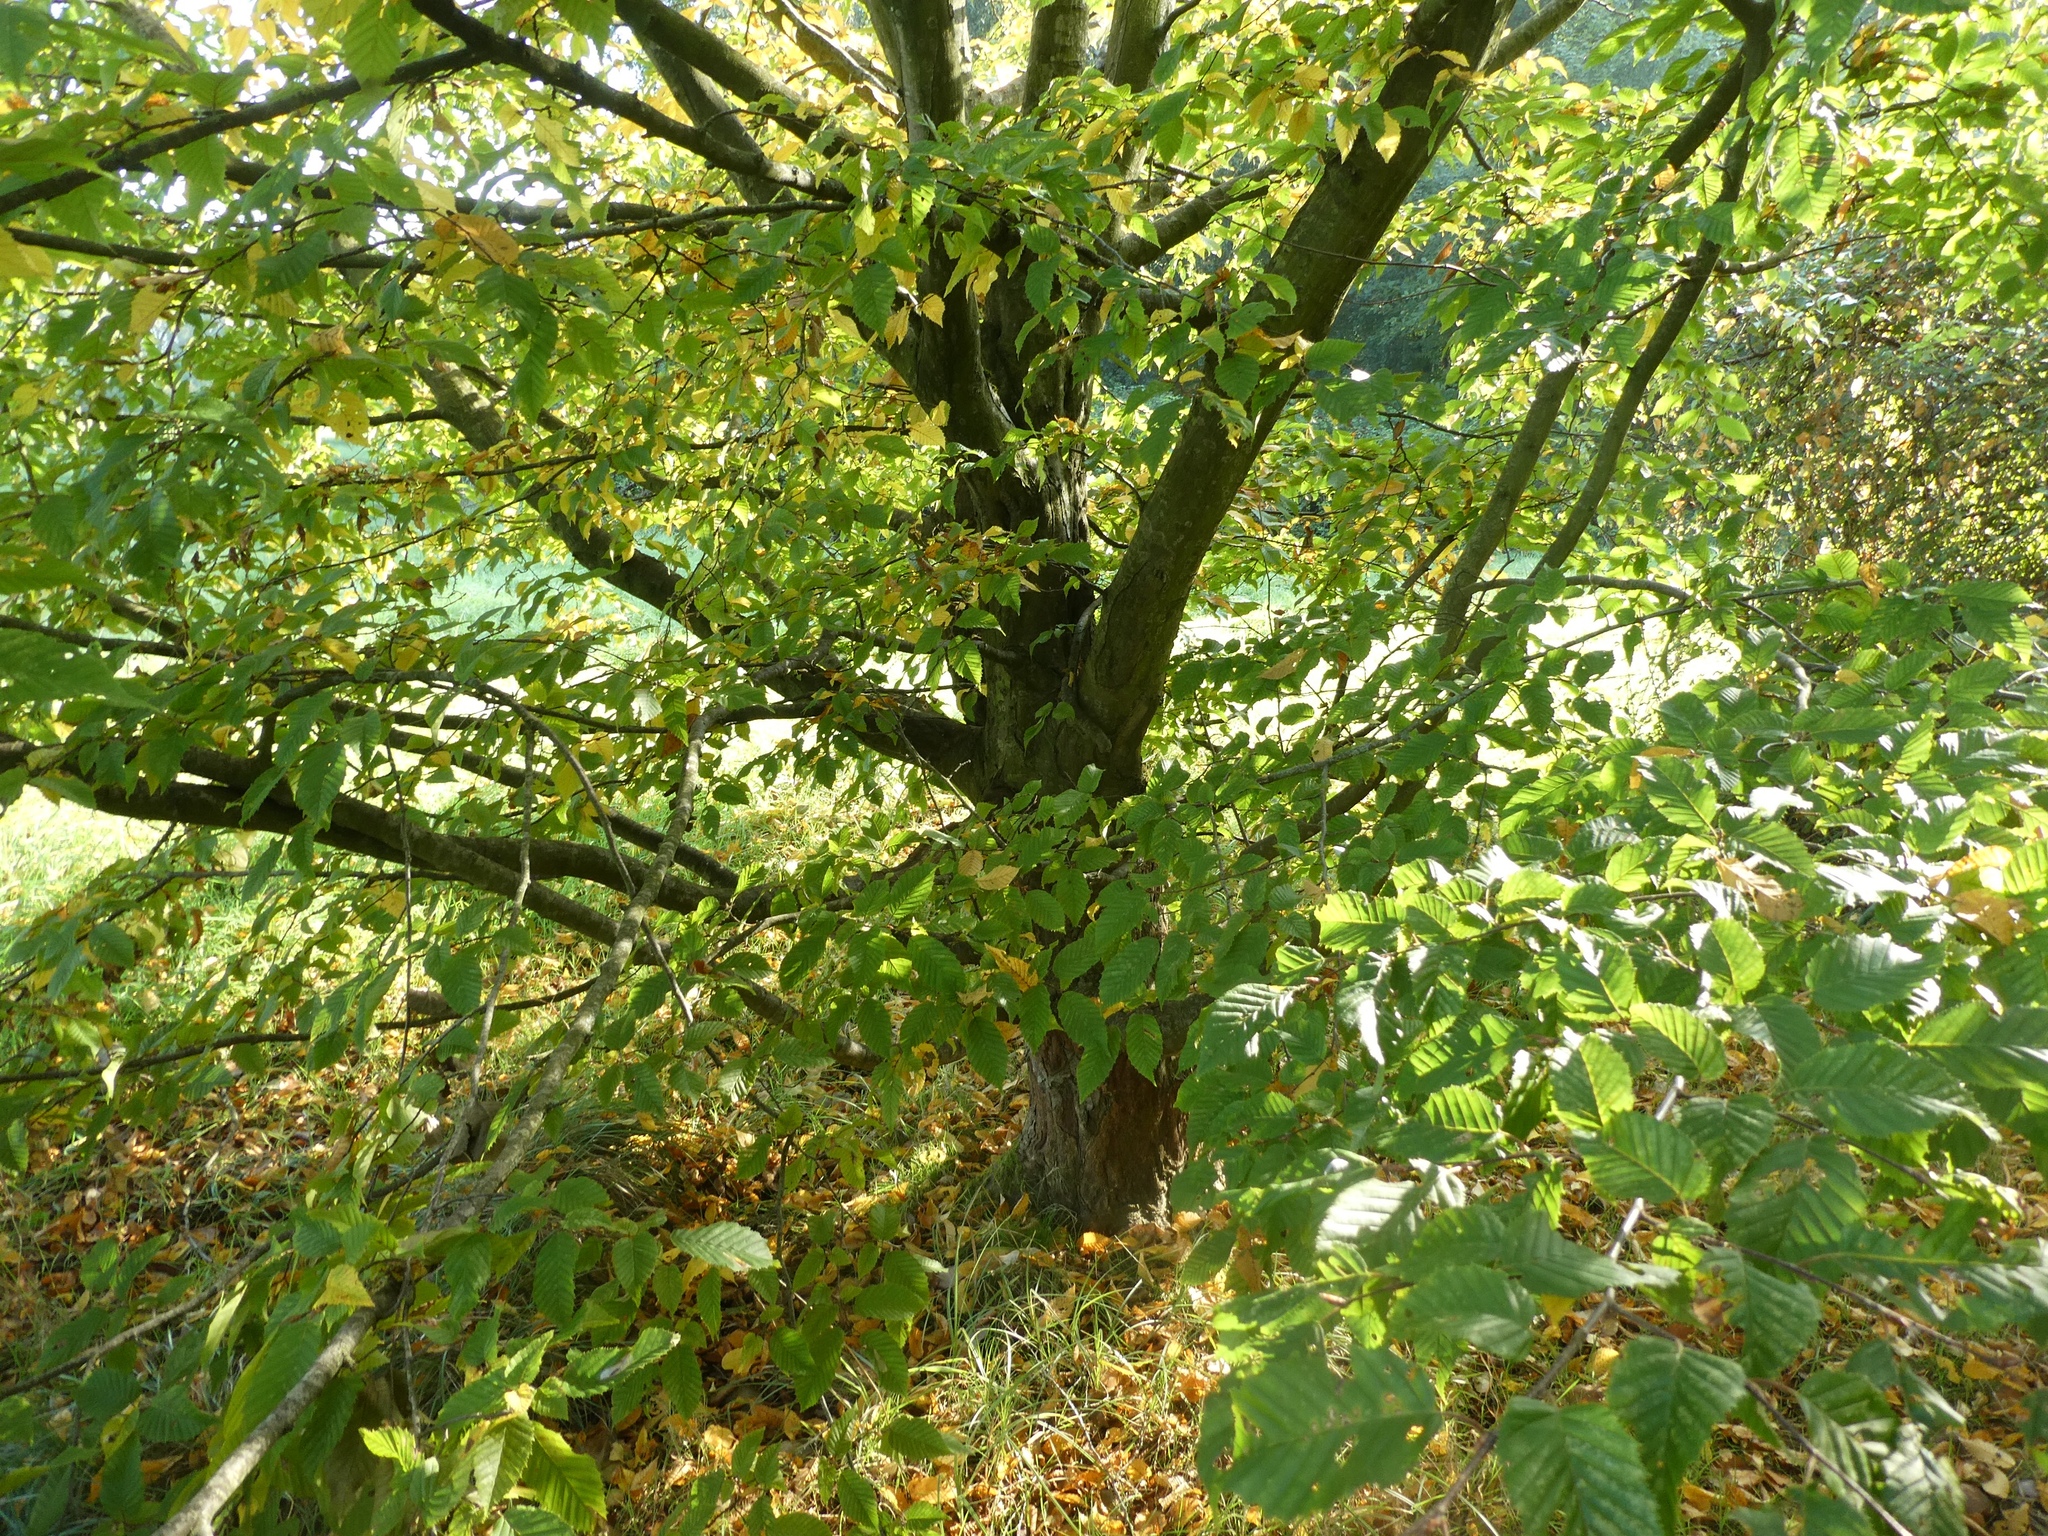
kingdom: Plantae
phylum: Tracheophyta
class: Magnoliopsida
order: Fagales
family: Betulaceae
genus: Carpinus
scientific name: Carpinus betulus
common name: Hornbeam
